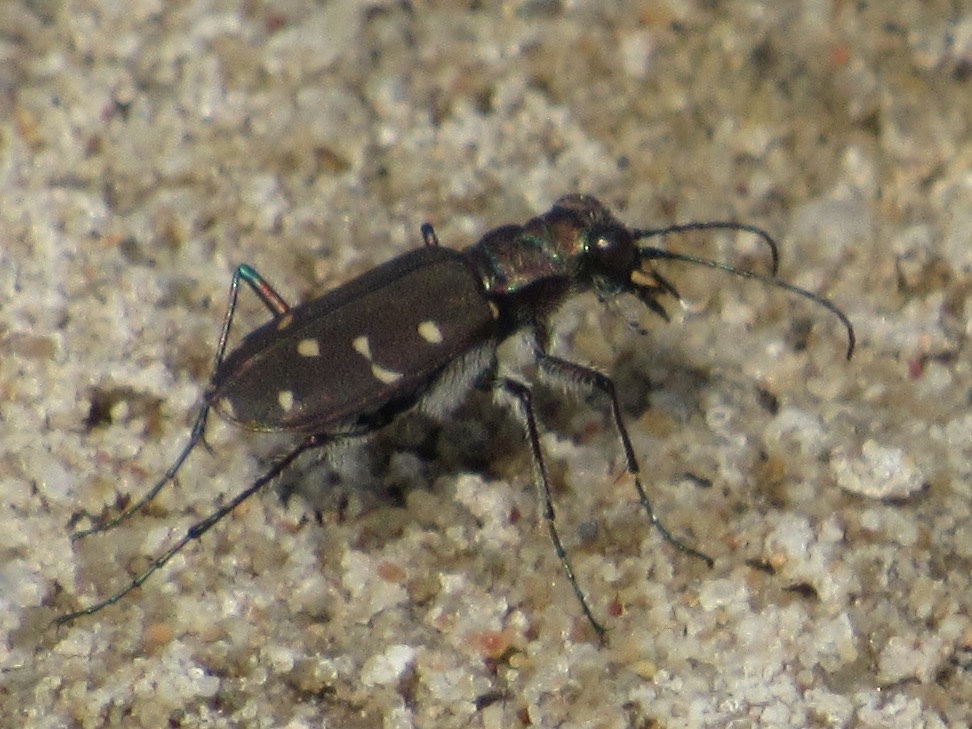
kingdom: Animalia
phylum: Arthropoda
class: Insecta
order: Coleoptera
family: Carabidae
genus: Cicindela
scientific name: Cicindela duodecimguttata
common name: Twelve-spotted tiger beetle
